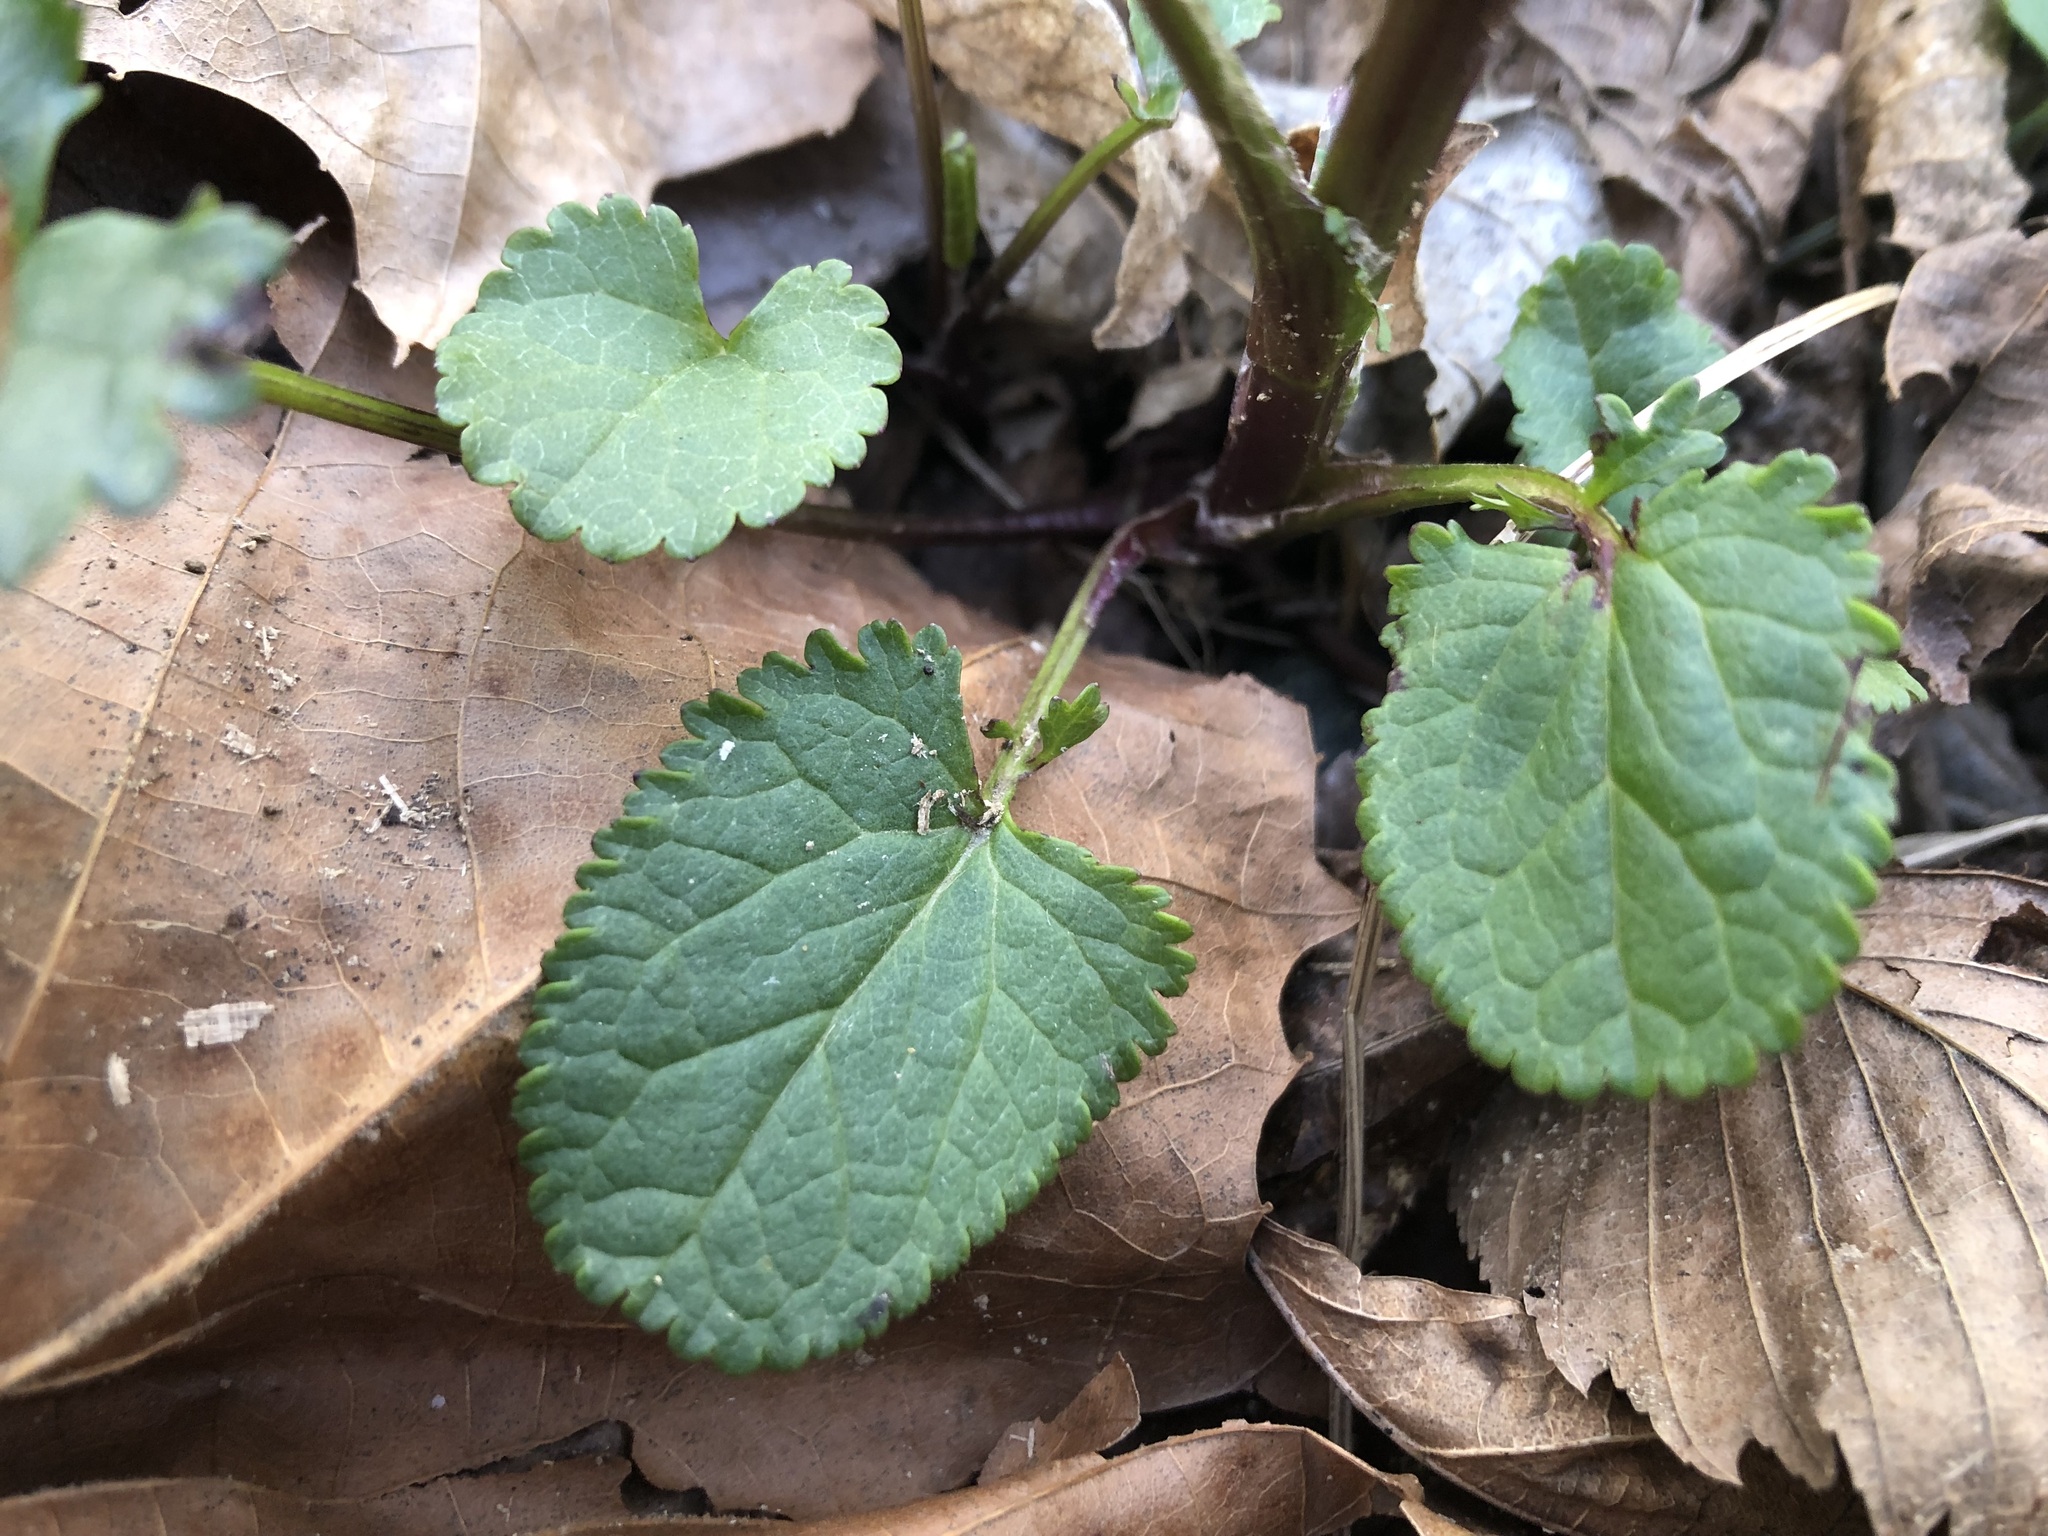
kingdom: Plantae
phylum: Tracheophyta
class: Magnoliopsida
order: Asterales
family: Asteraceae
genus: Packera
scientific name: Packera aurea
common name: Golden groundsel
